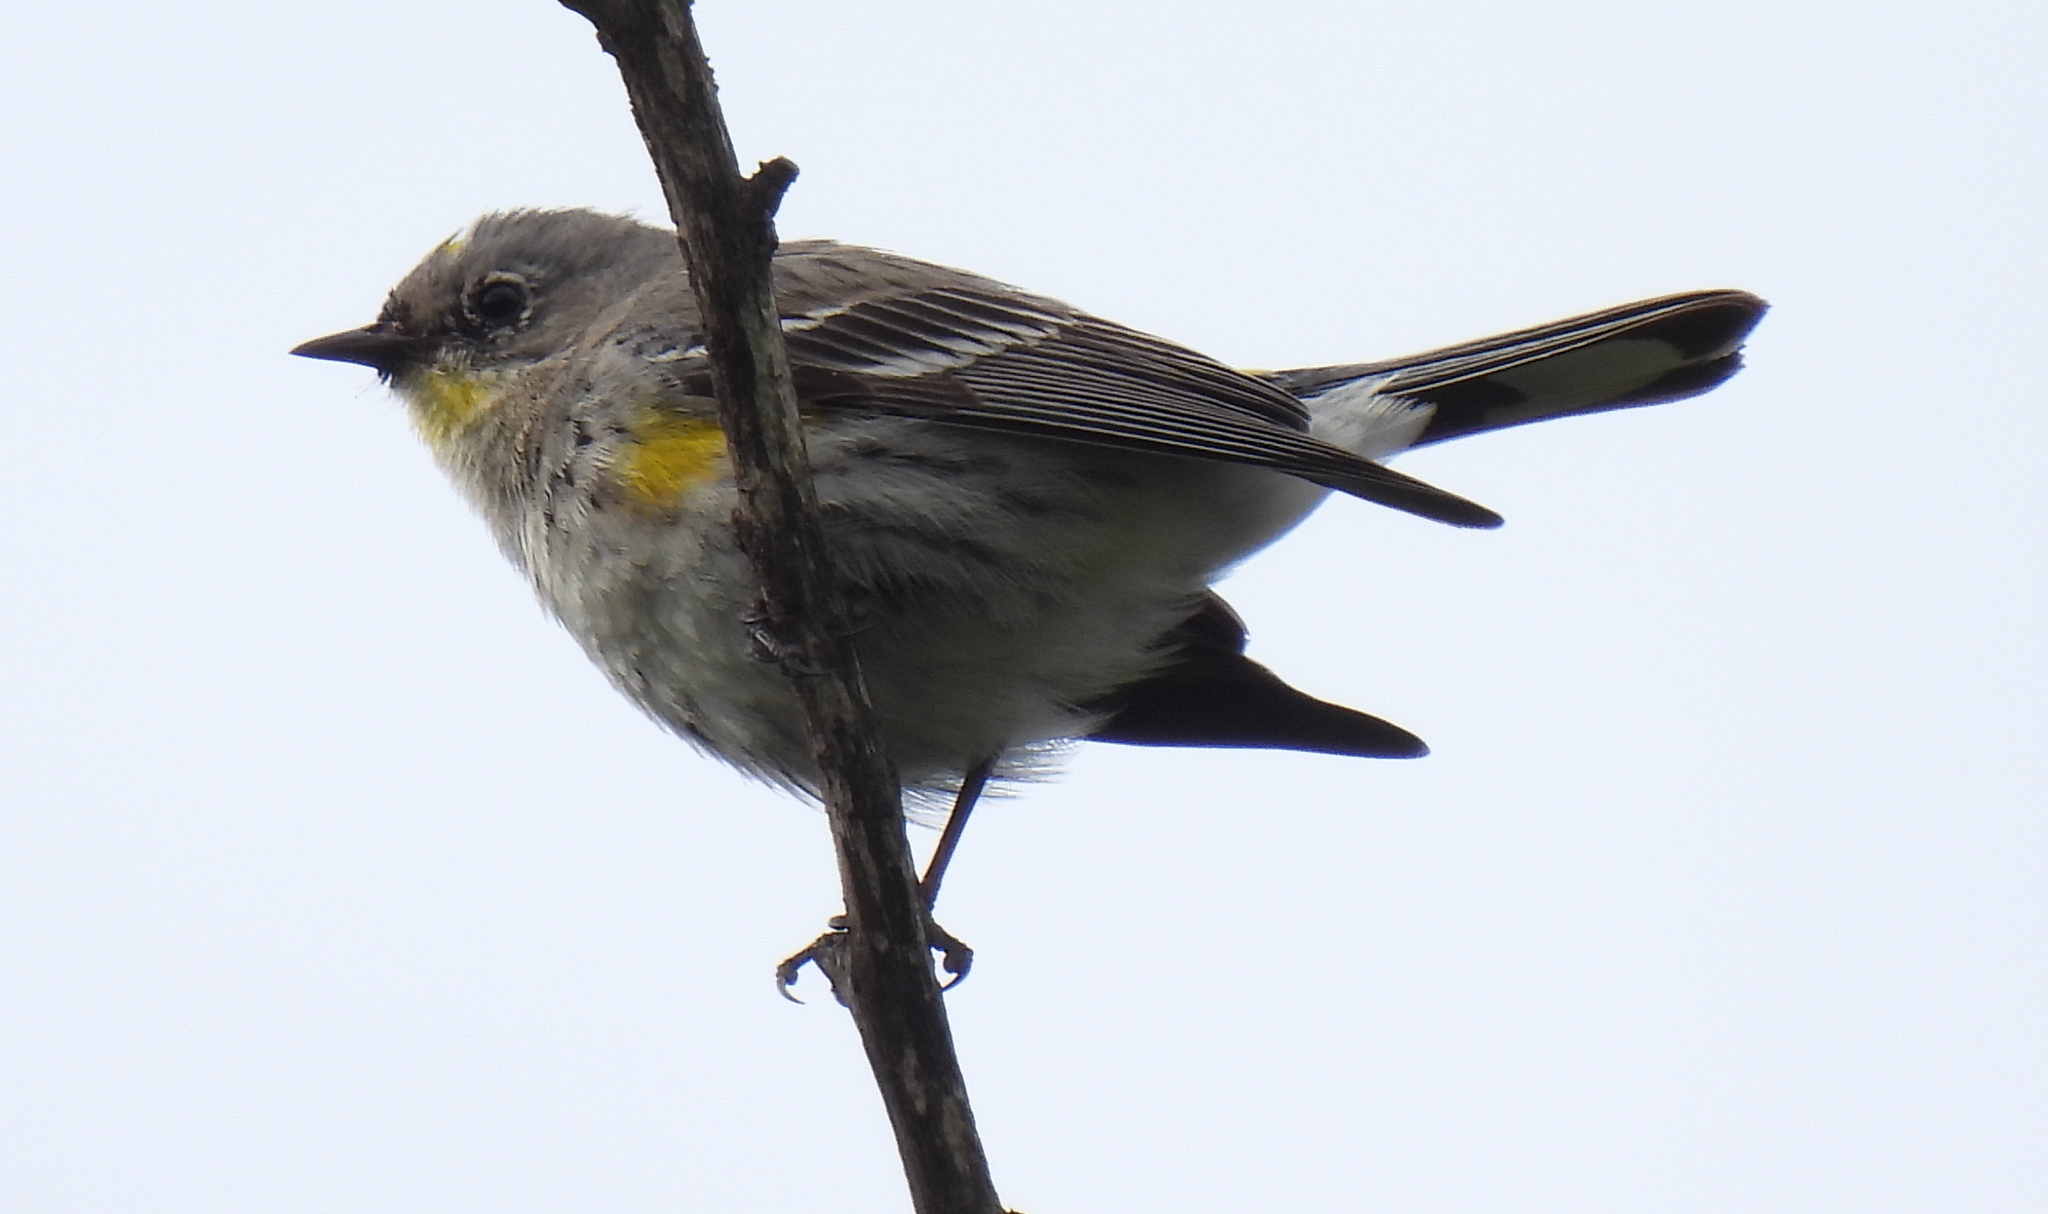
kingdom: Animalia
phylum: Chordata
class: Aves
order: Passeriformes
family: Parulidae
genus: Setophaga
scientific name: Setophaga coronata
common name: Myrtle warbler
